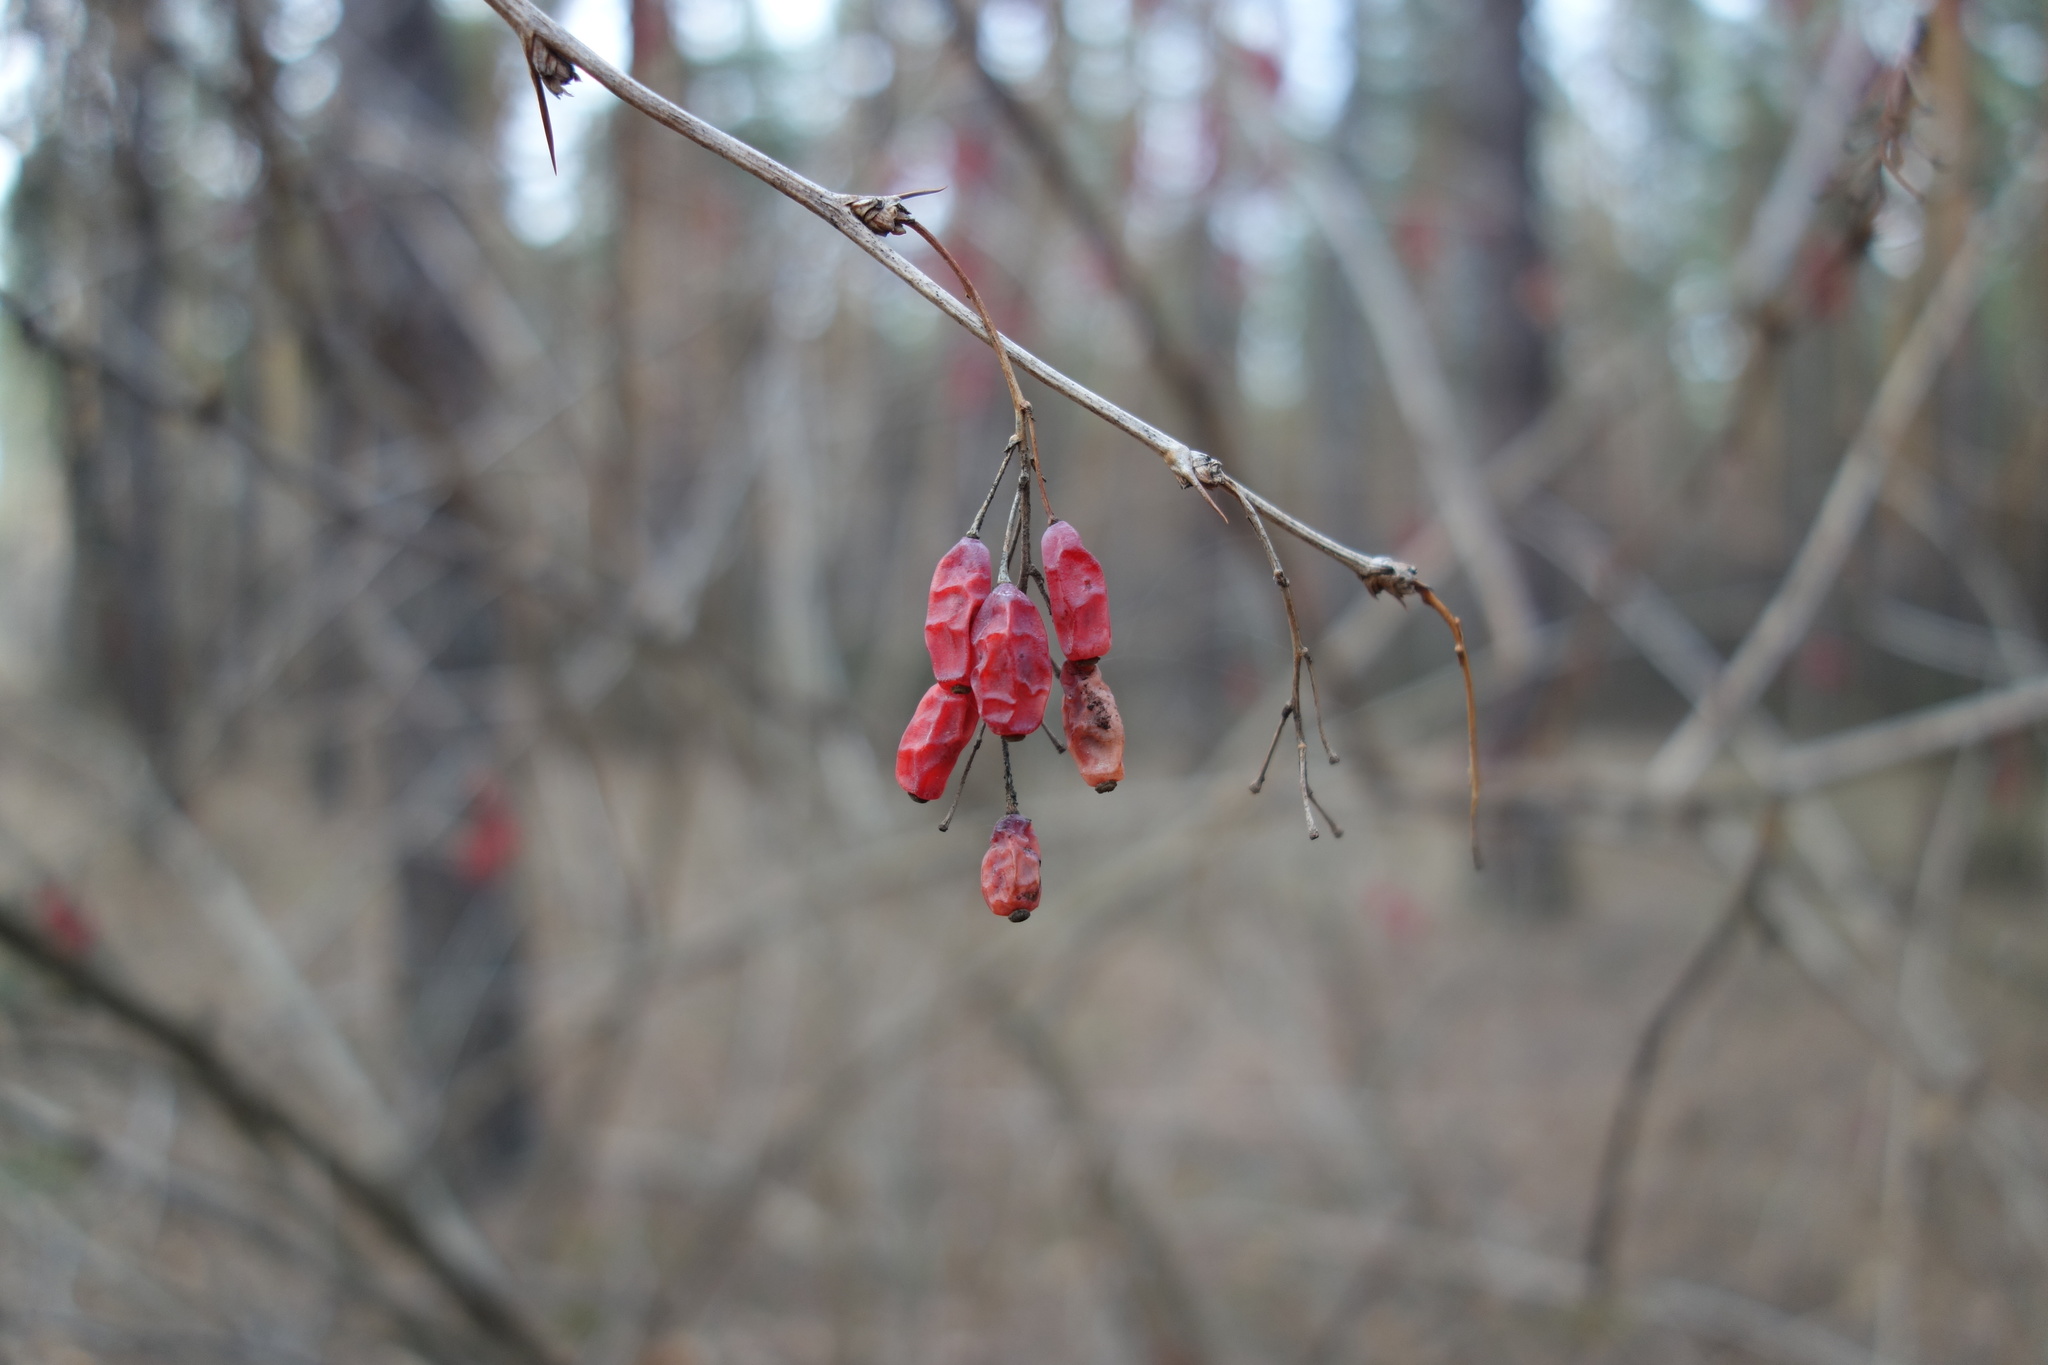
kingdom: Plantae
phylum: Tracheophyta
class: Magnoliopsida
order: Ranunculales
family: Berberidaceae
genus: Berberis
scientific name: Berberis vulgaris
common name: Barberry
